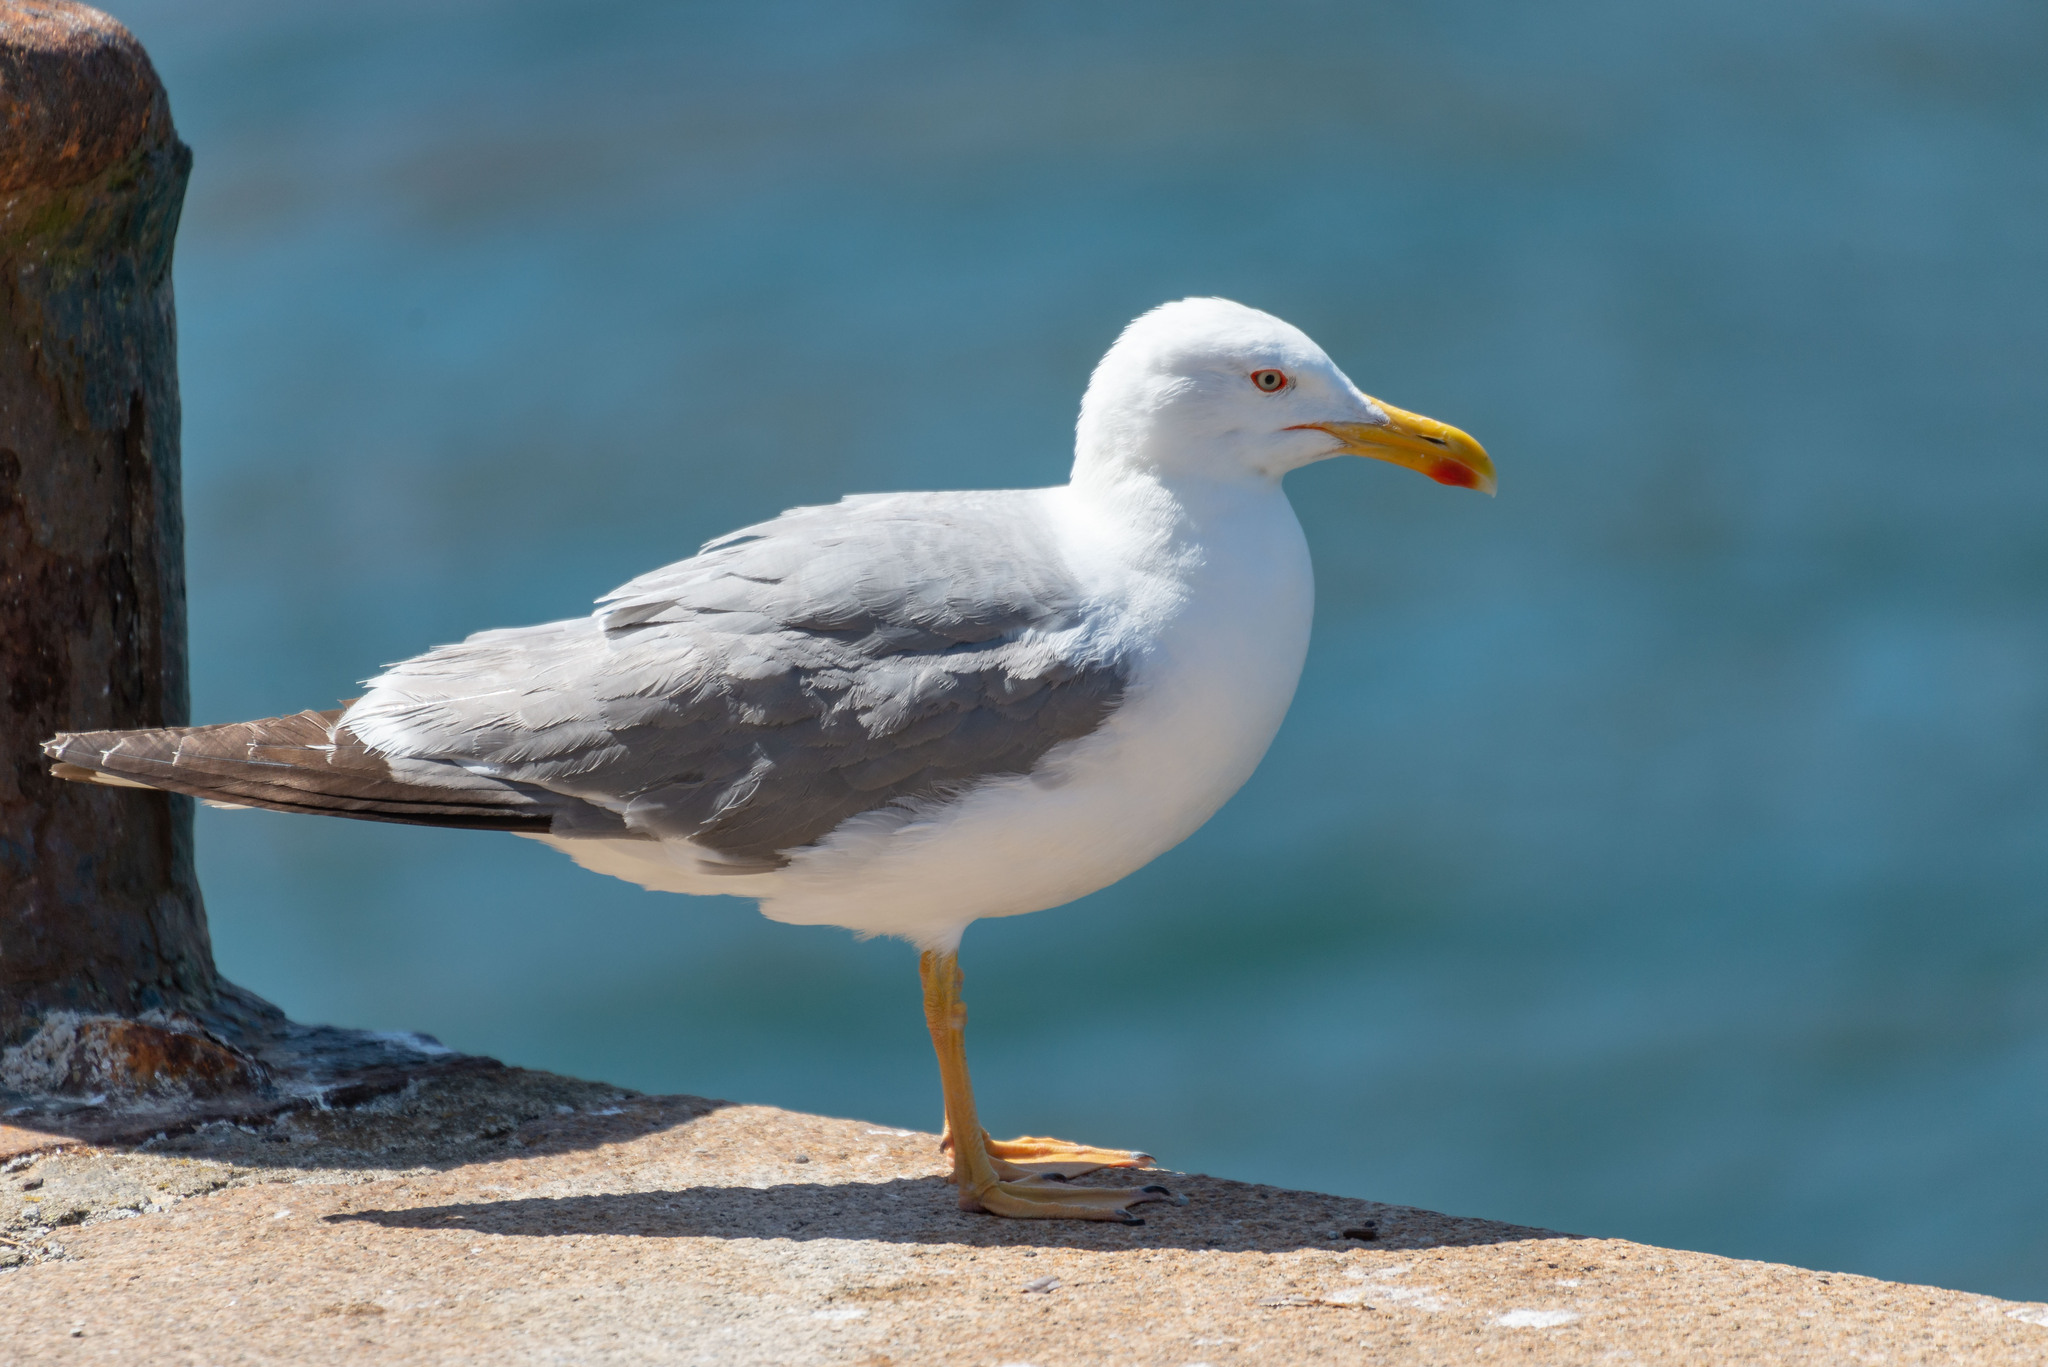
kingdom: Animalia
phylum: Chordata
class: Aves
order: Charadriiformes
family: Laridae
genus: Larus
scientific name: Larus michahellis
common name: Yellow-legged gull
